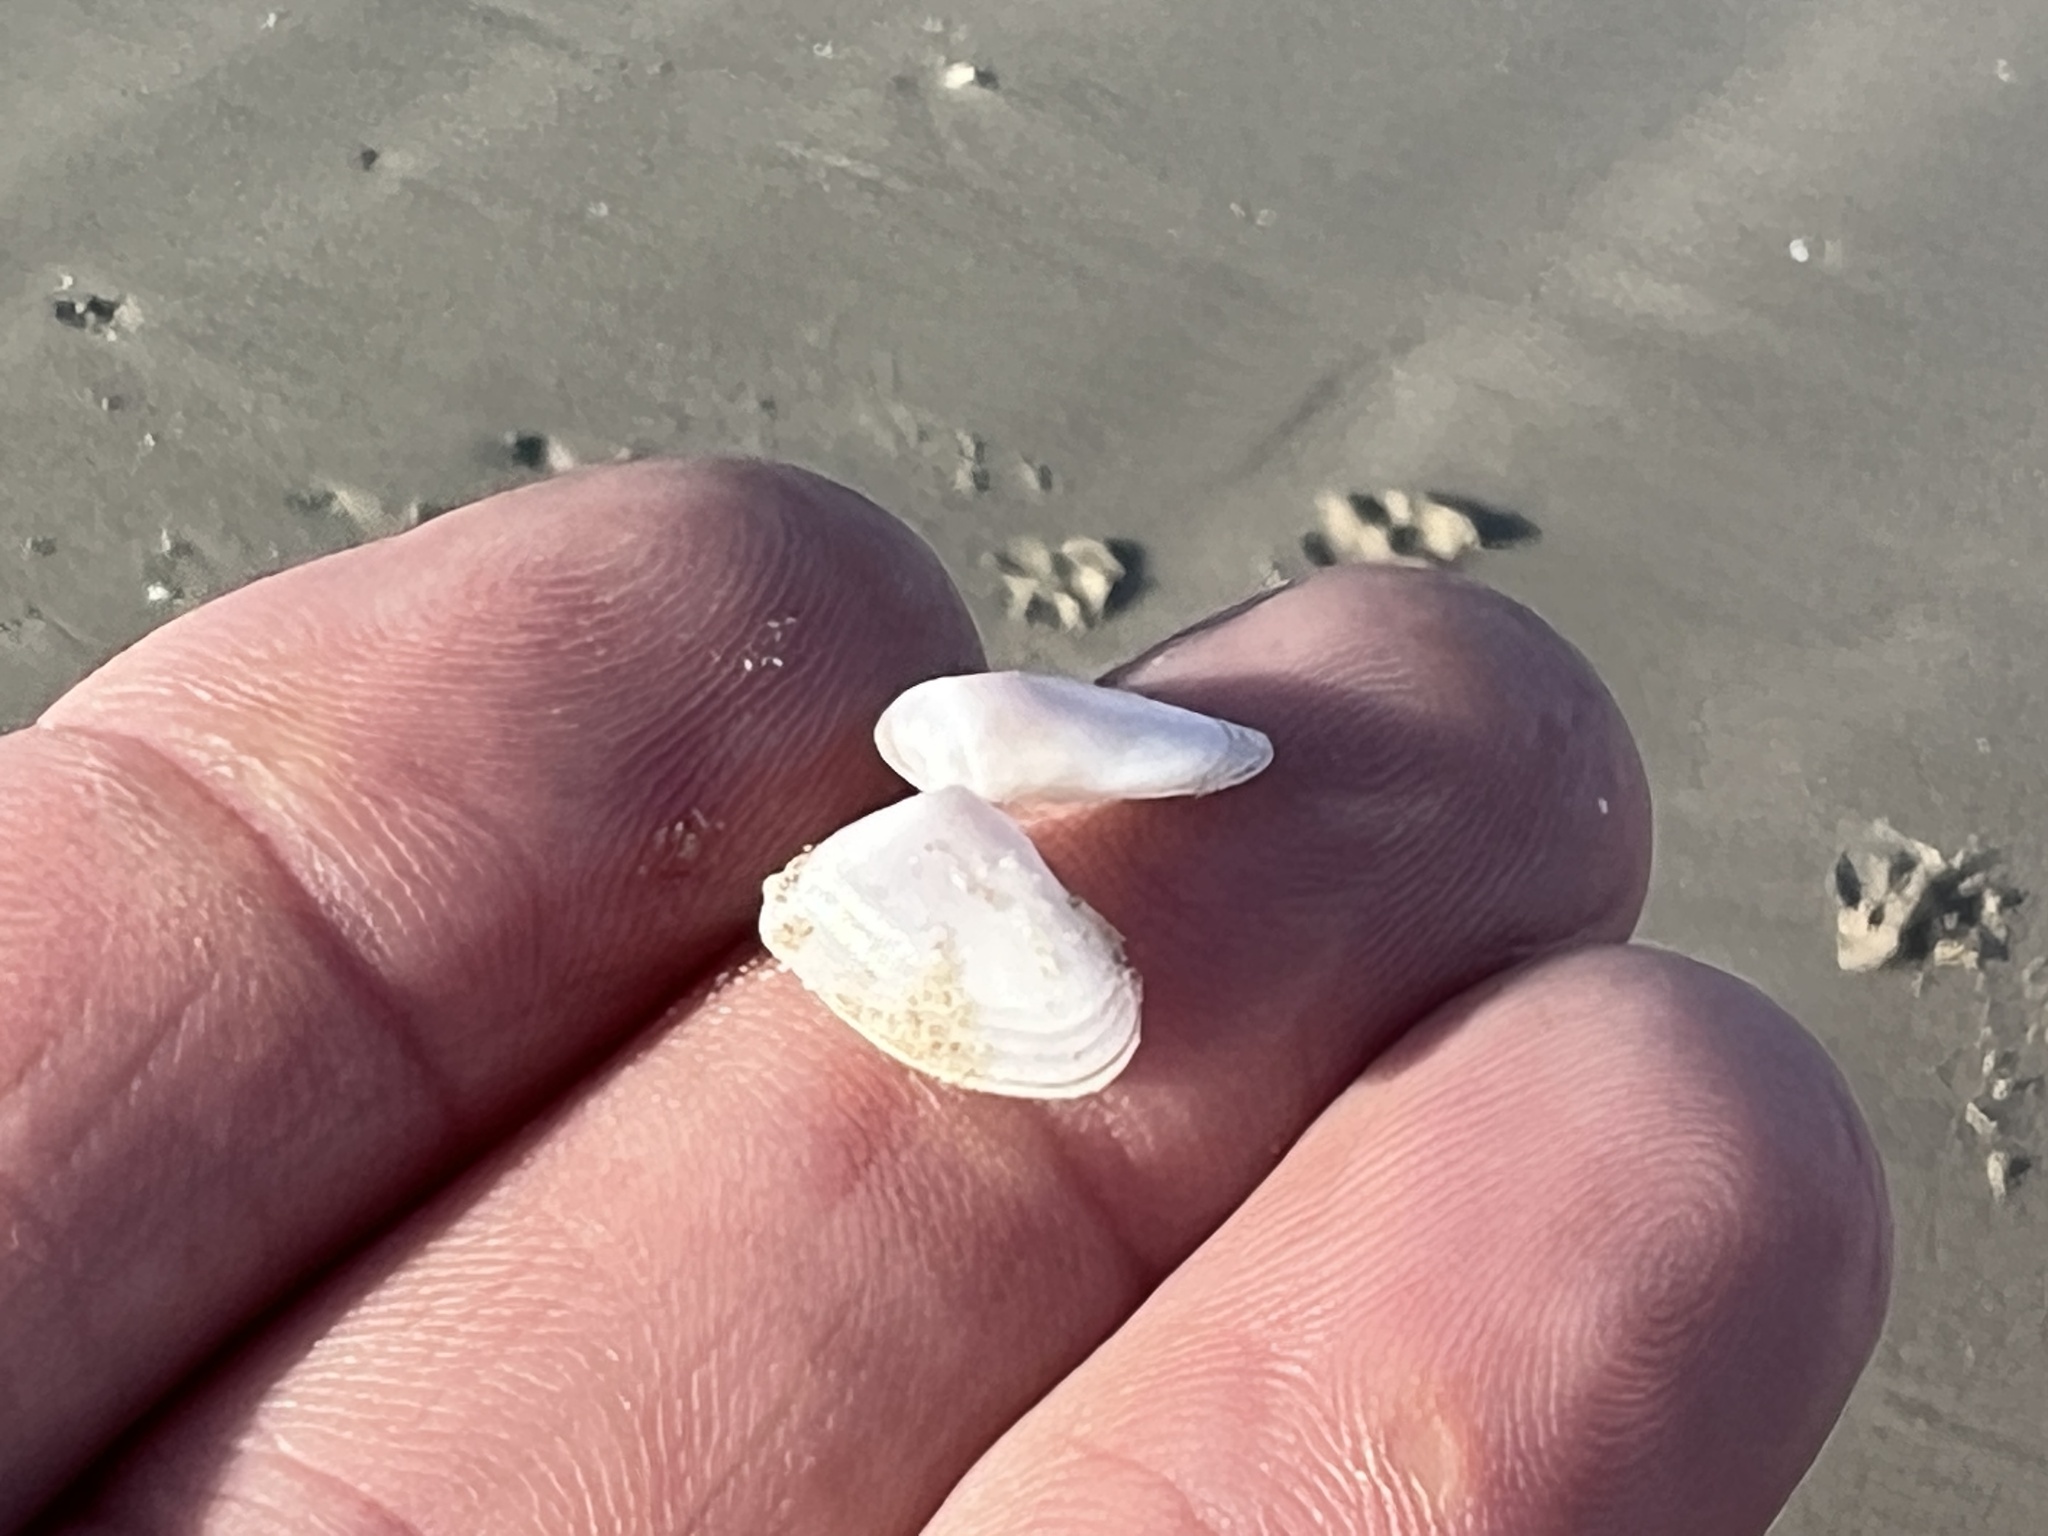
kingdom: Animalia
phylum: Mollusca
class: Bivalvia
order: Cardiida
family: Donacidae
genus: Donax
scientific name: Donax variabilis
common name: Butterfly shell
